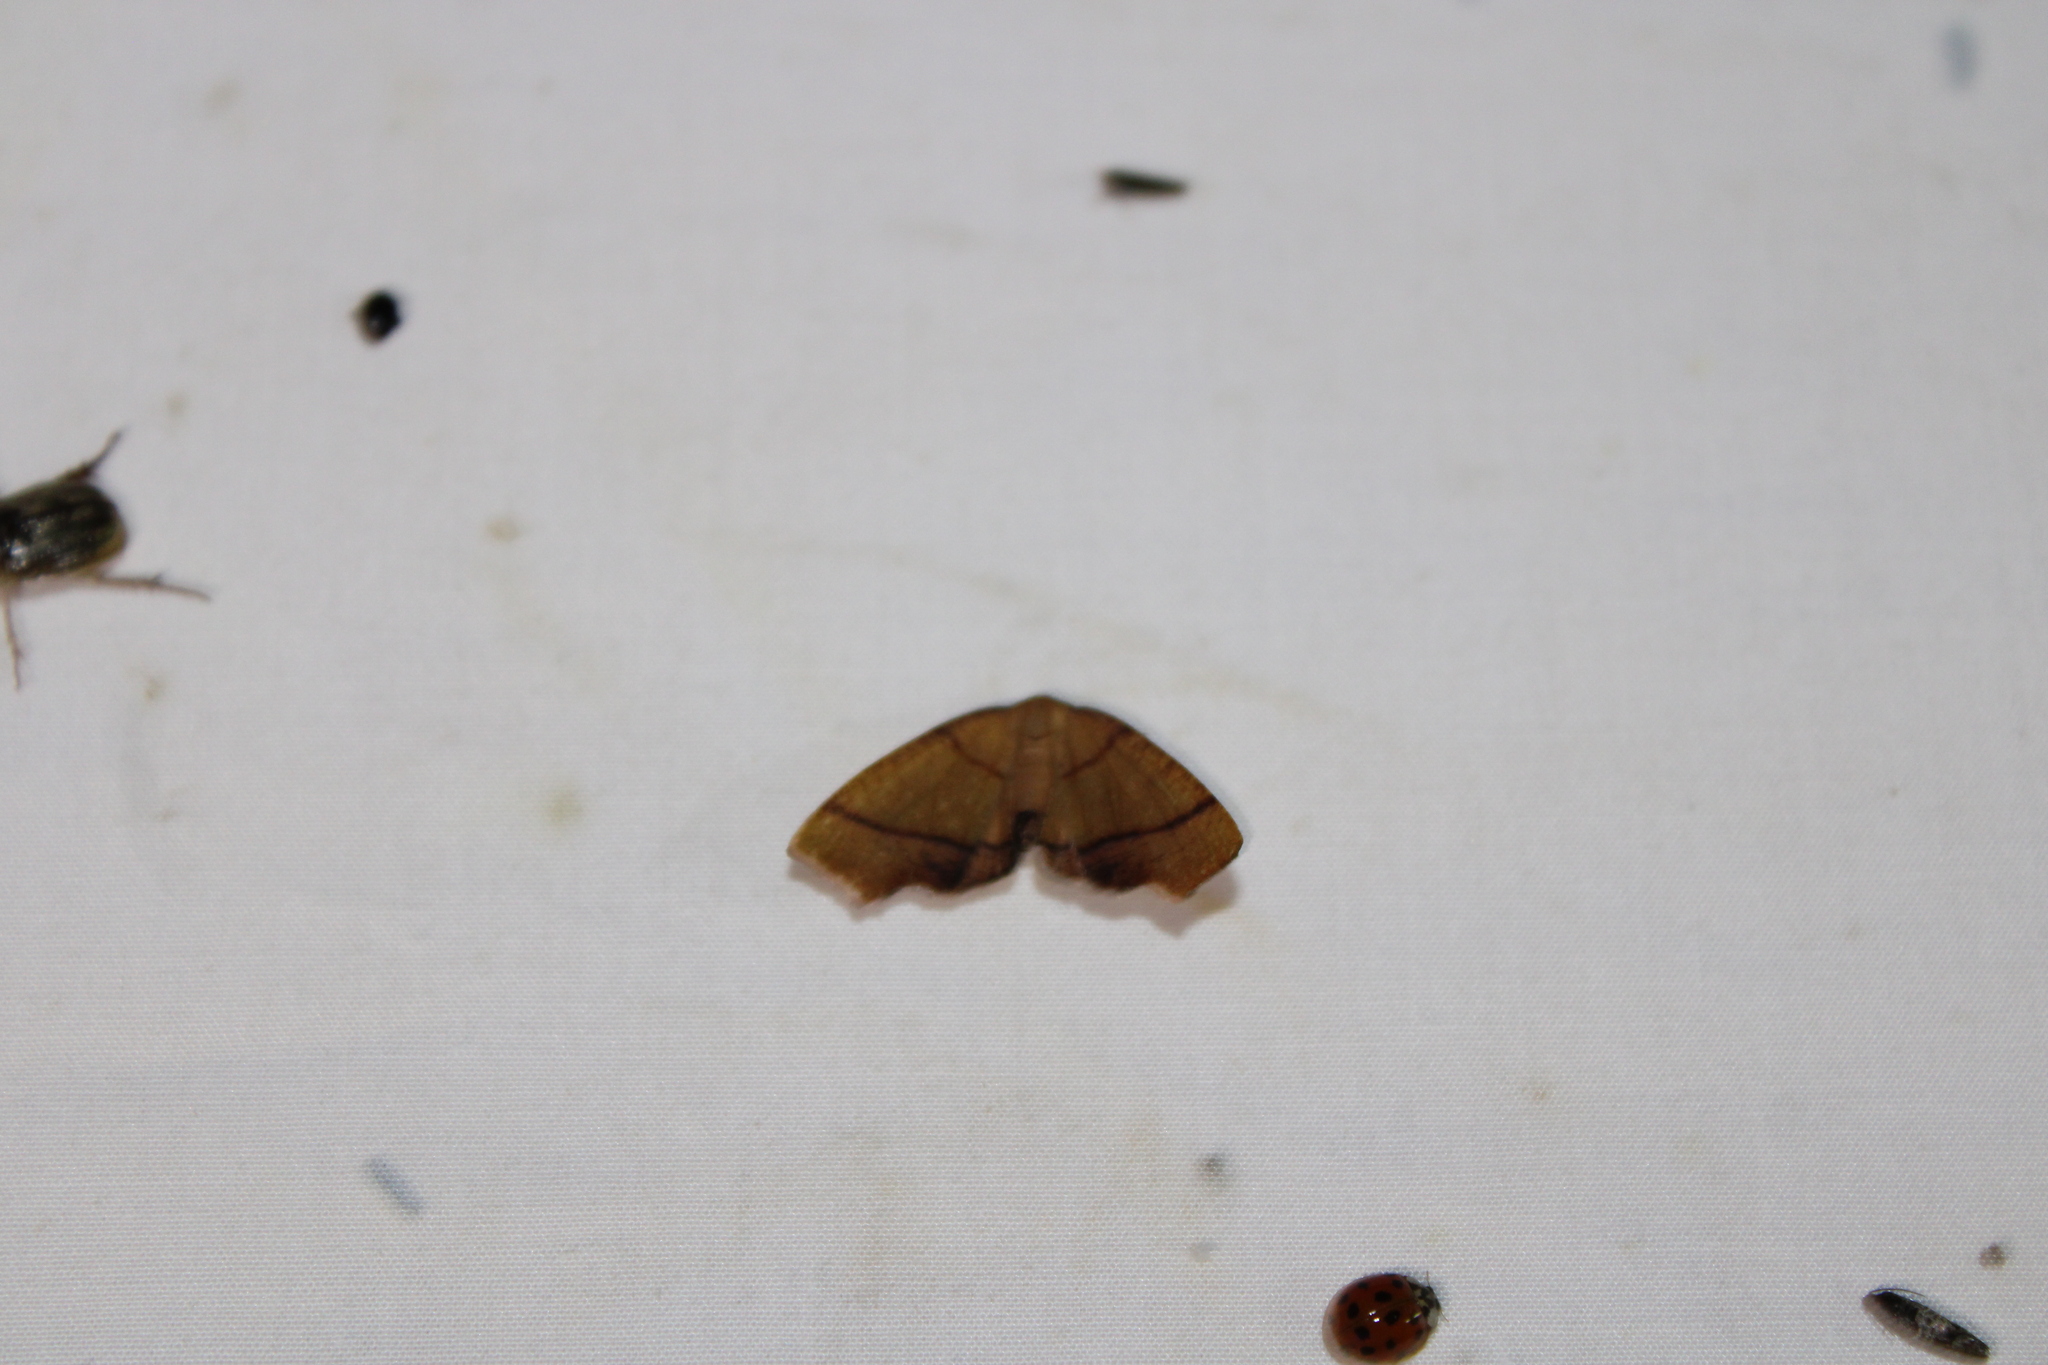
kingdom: Animalia
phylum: Arthropoda
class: Insecta
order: Lepidoptera
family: Geometridae
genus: Plagodis
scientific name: Plagodis phlogosaria
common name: Straight-lined plagodis
